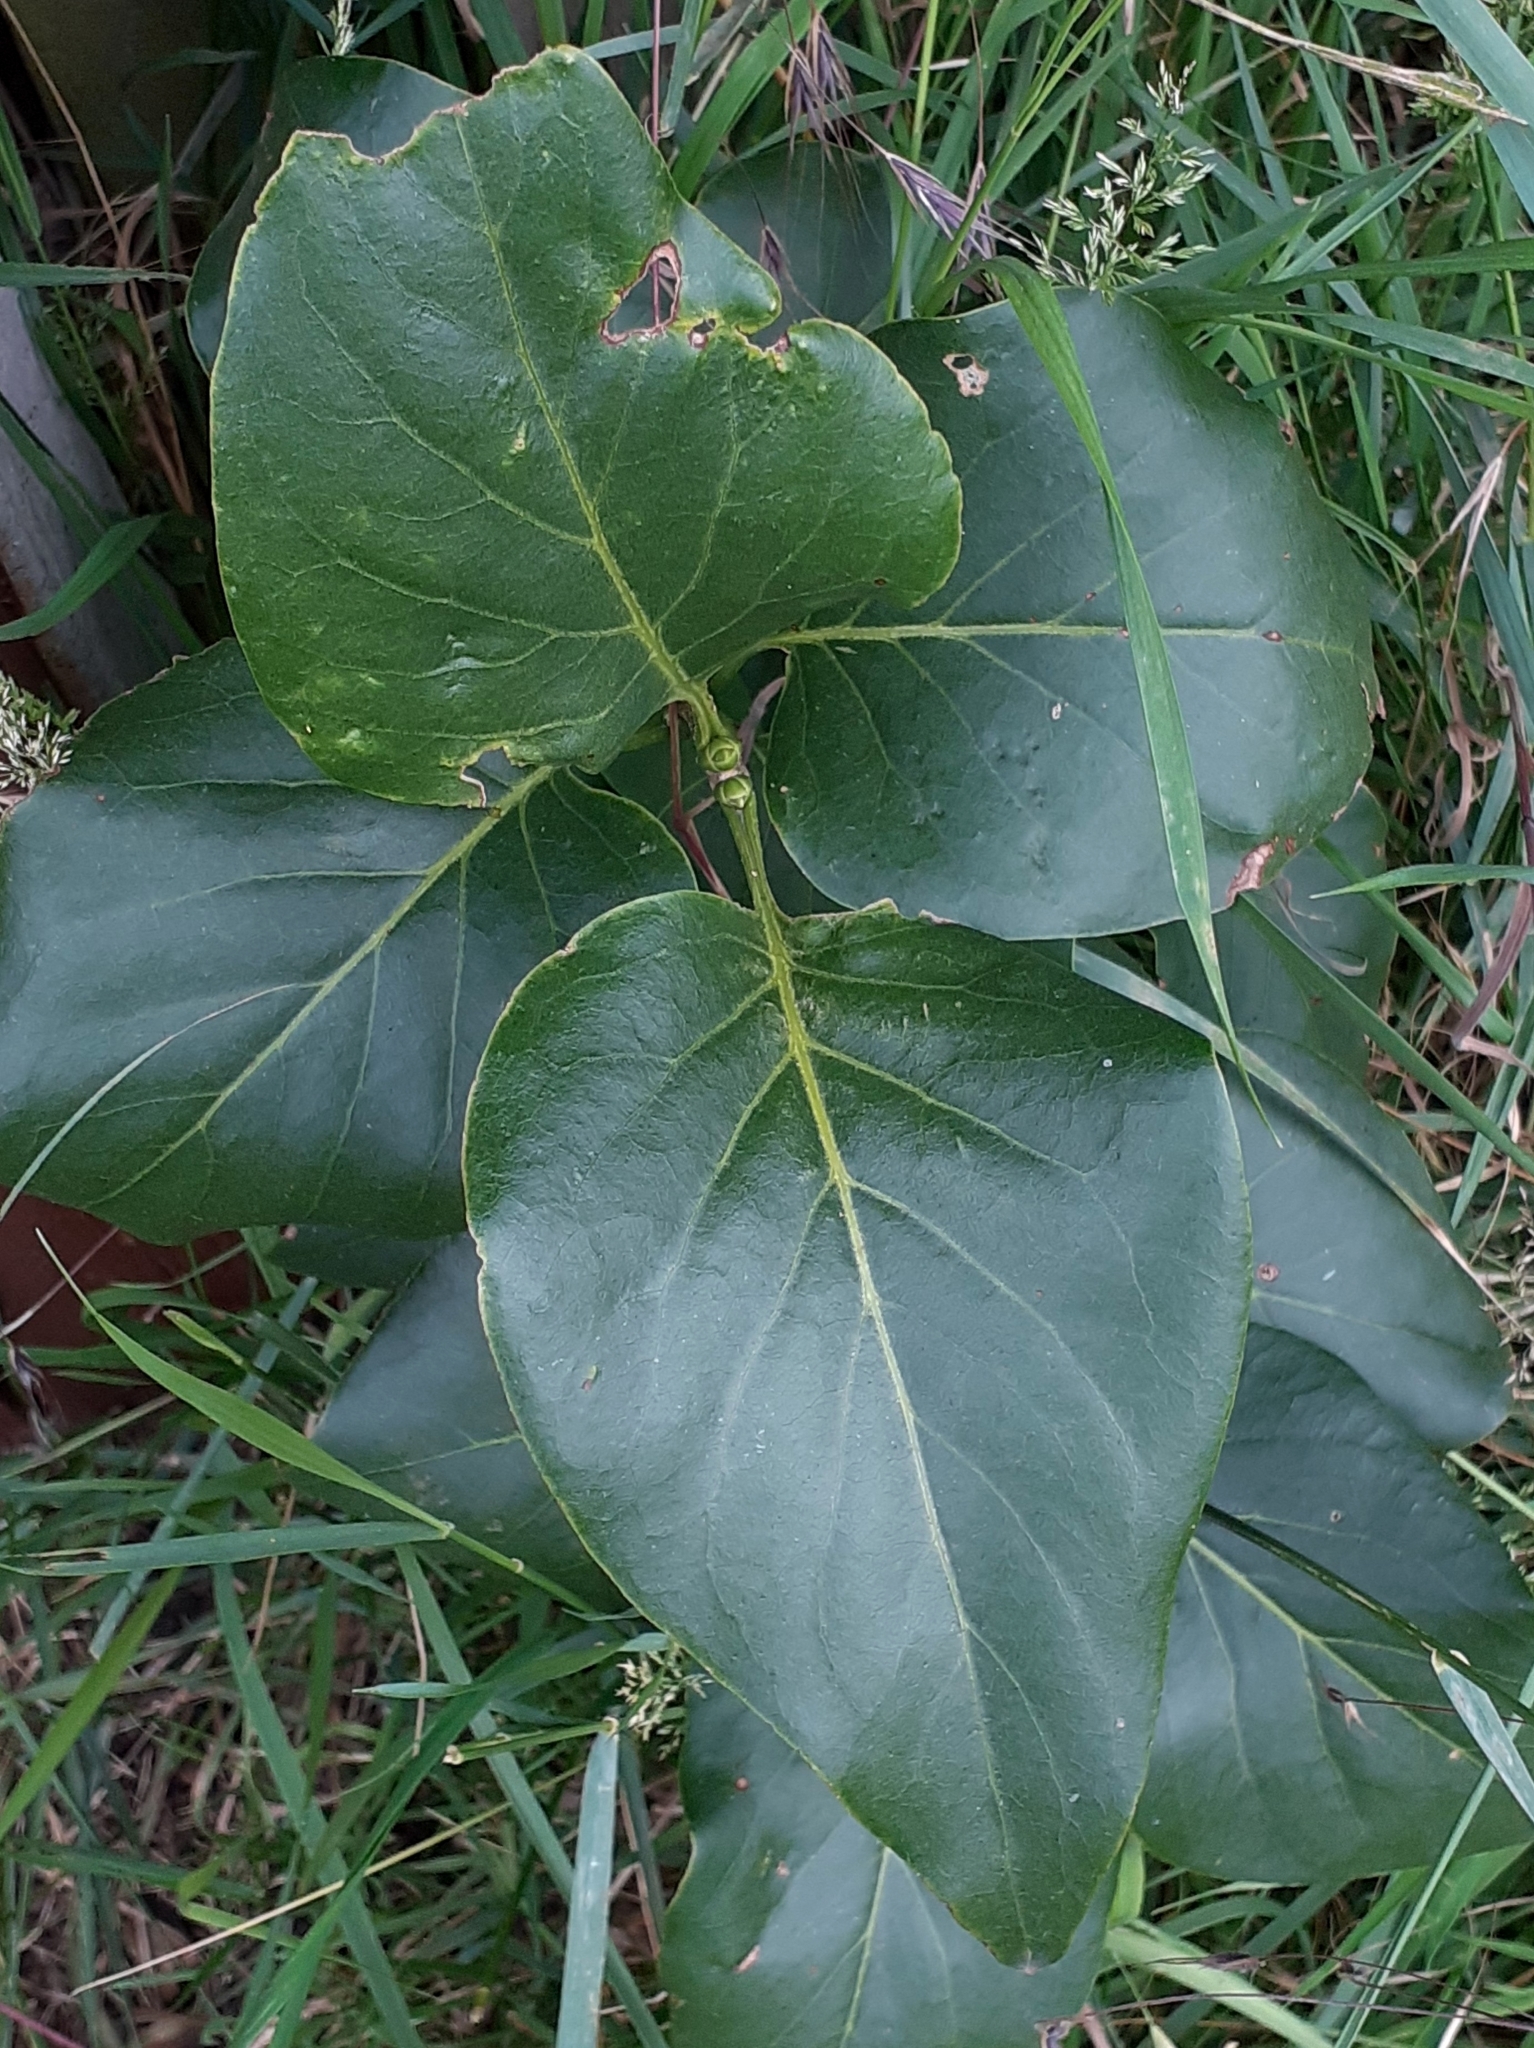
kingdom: Plantae
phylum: Tracheophyta
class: Magnoliopsida
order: Lamiales
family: Oleaceae
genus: Syringa
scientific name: Syringa vulgaris
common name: Common lilac
